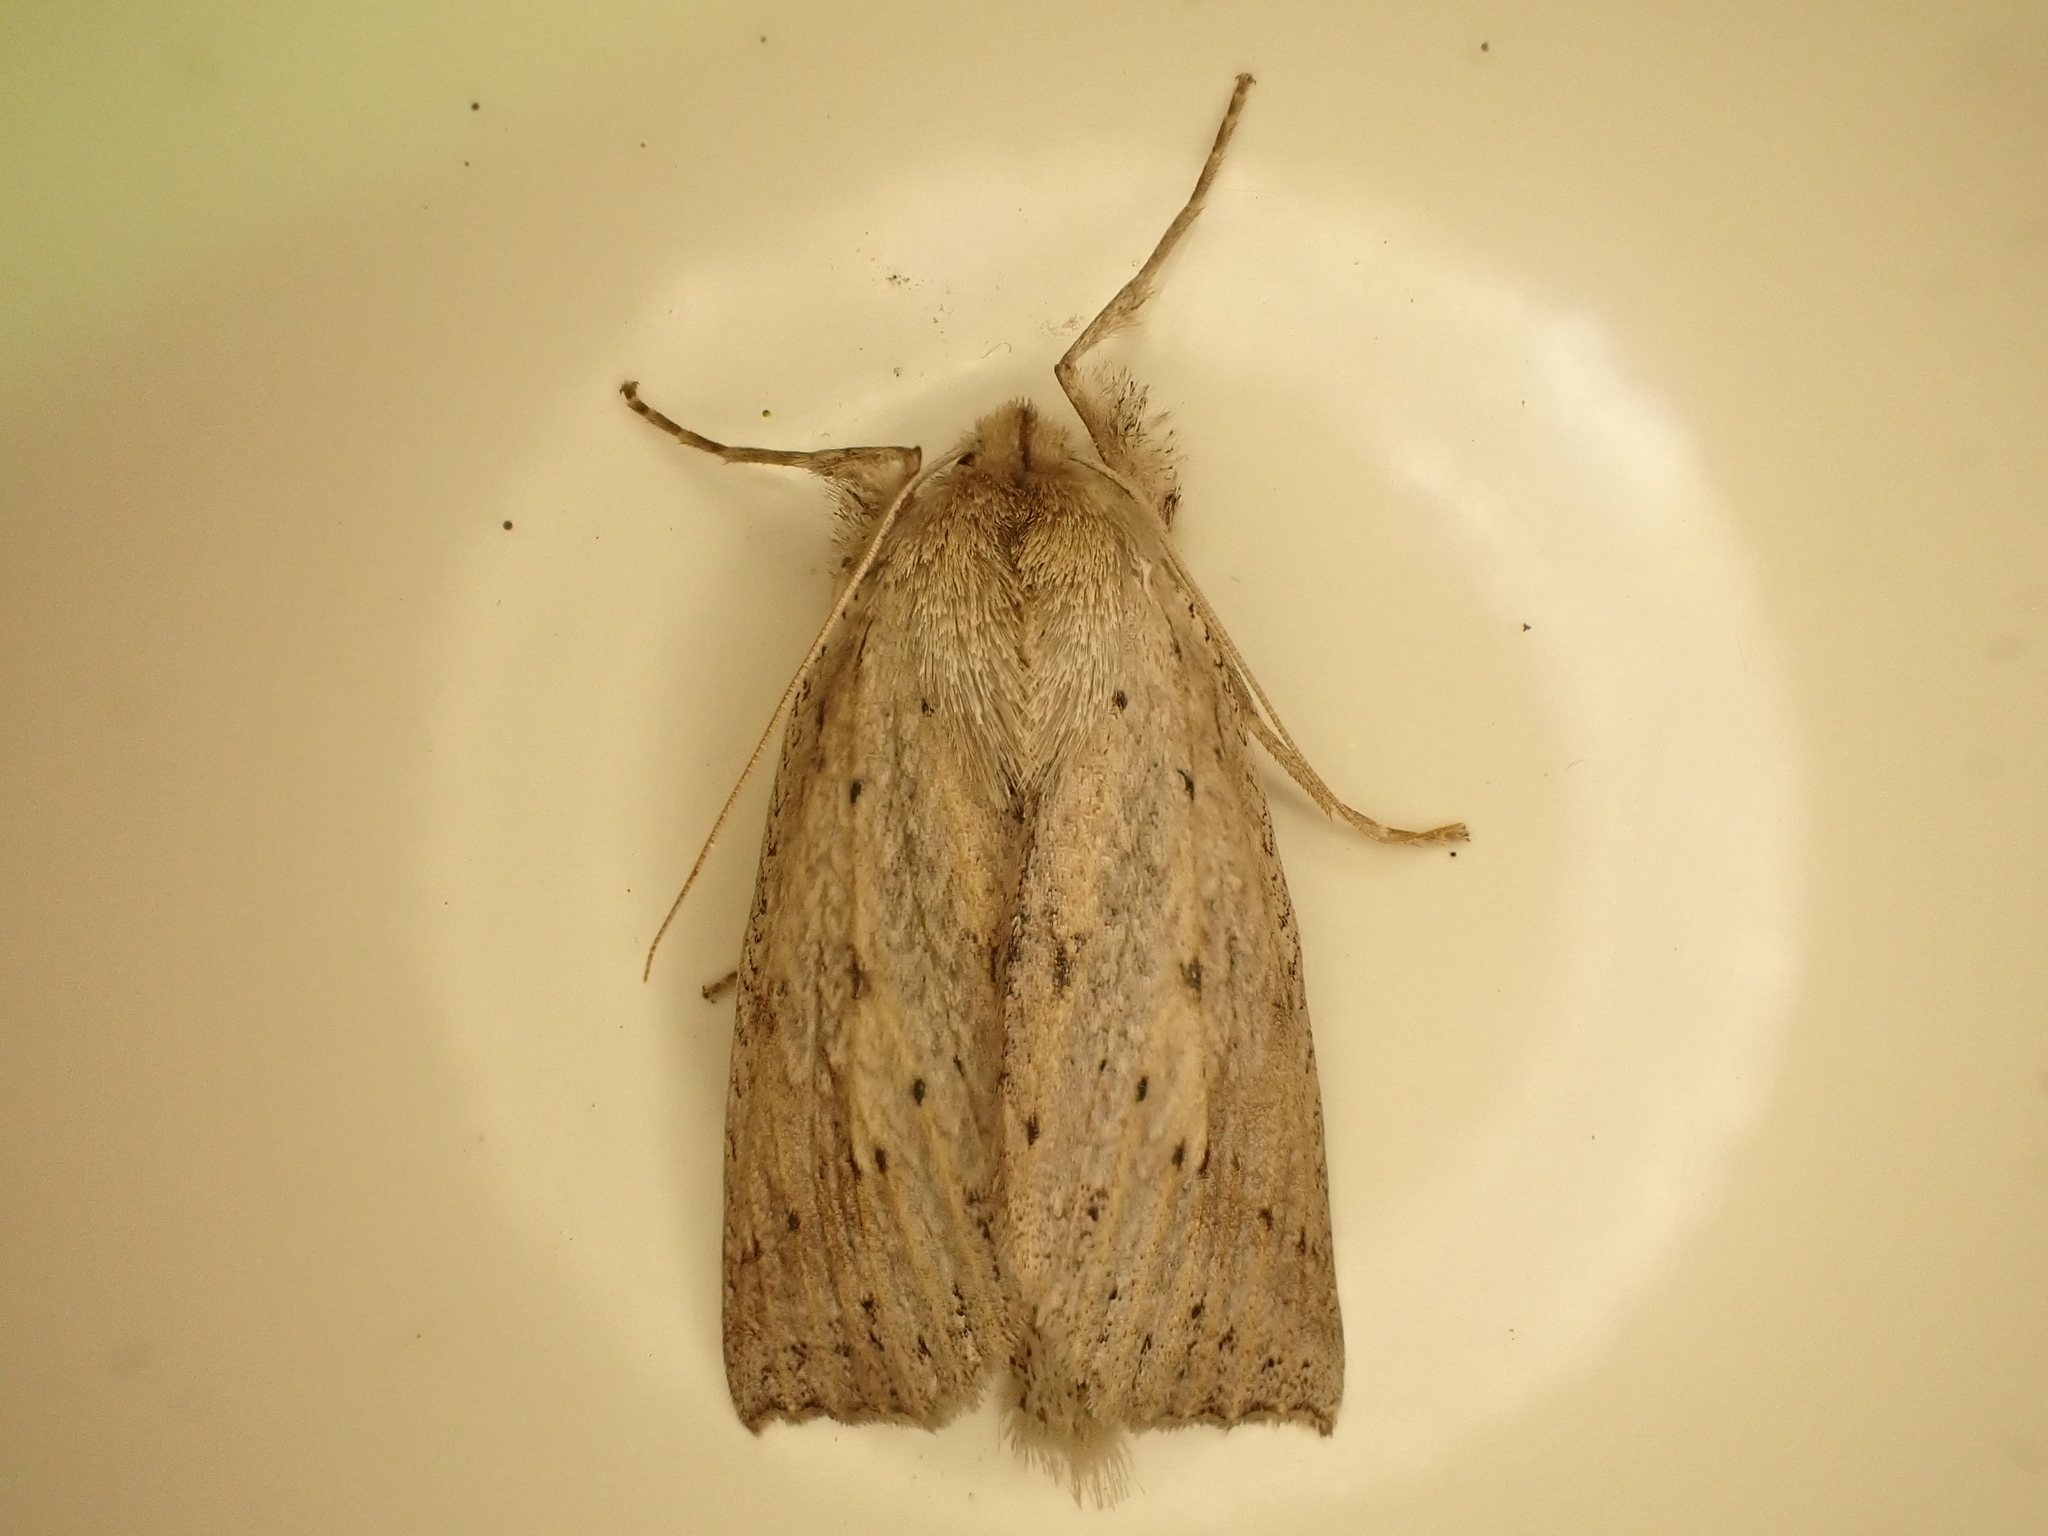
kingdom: Animalia
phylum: Arthropoda
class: Insecta
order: Lepidoptera
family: Geometridae
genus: Declana
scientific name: Declana leptomera
